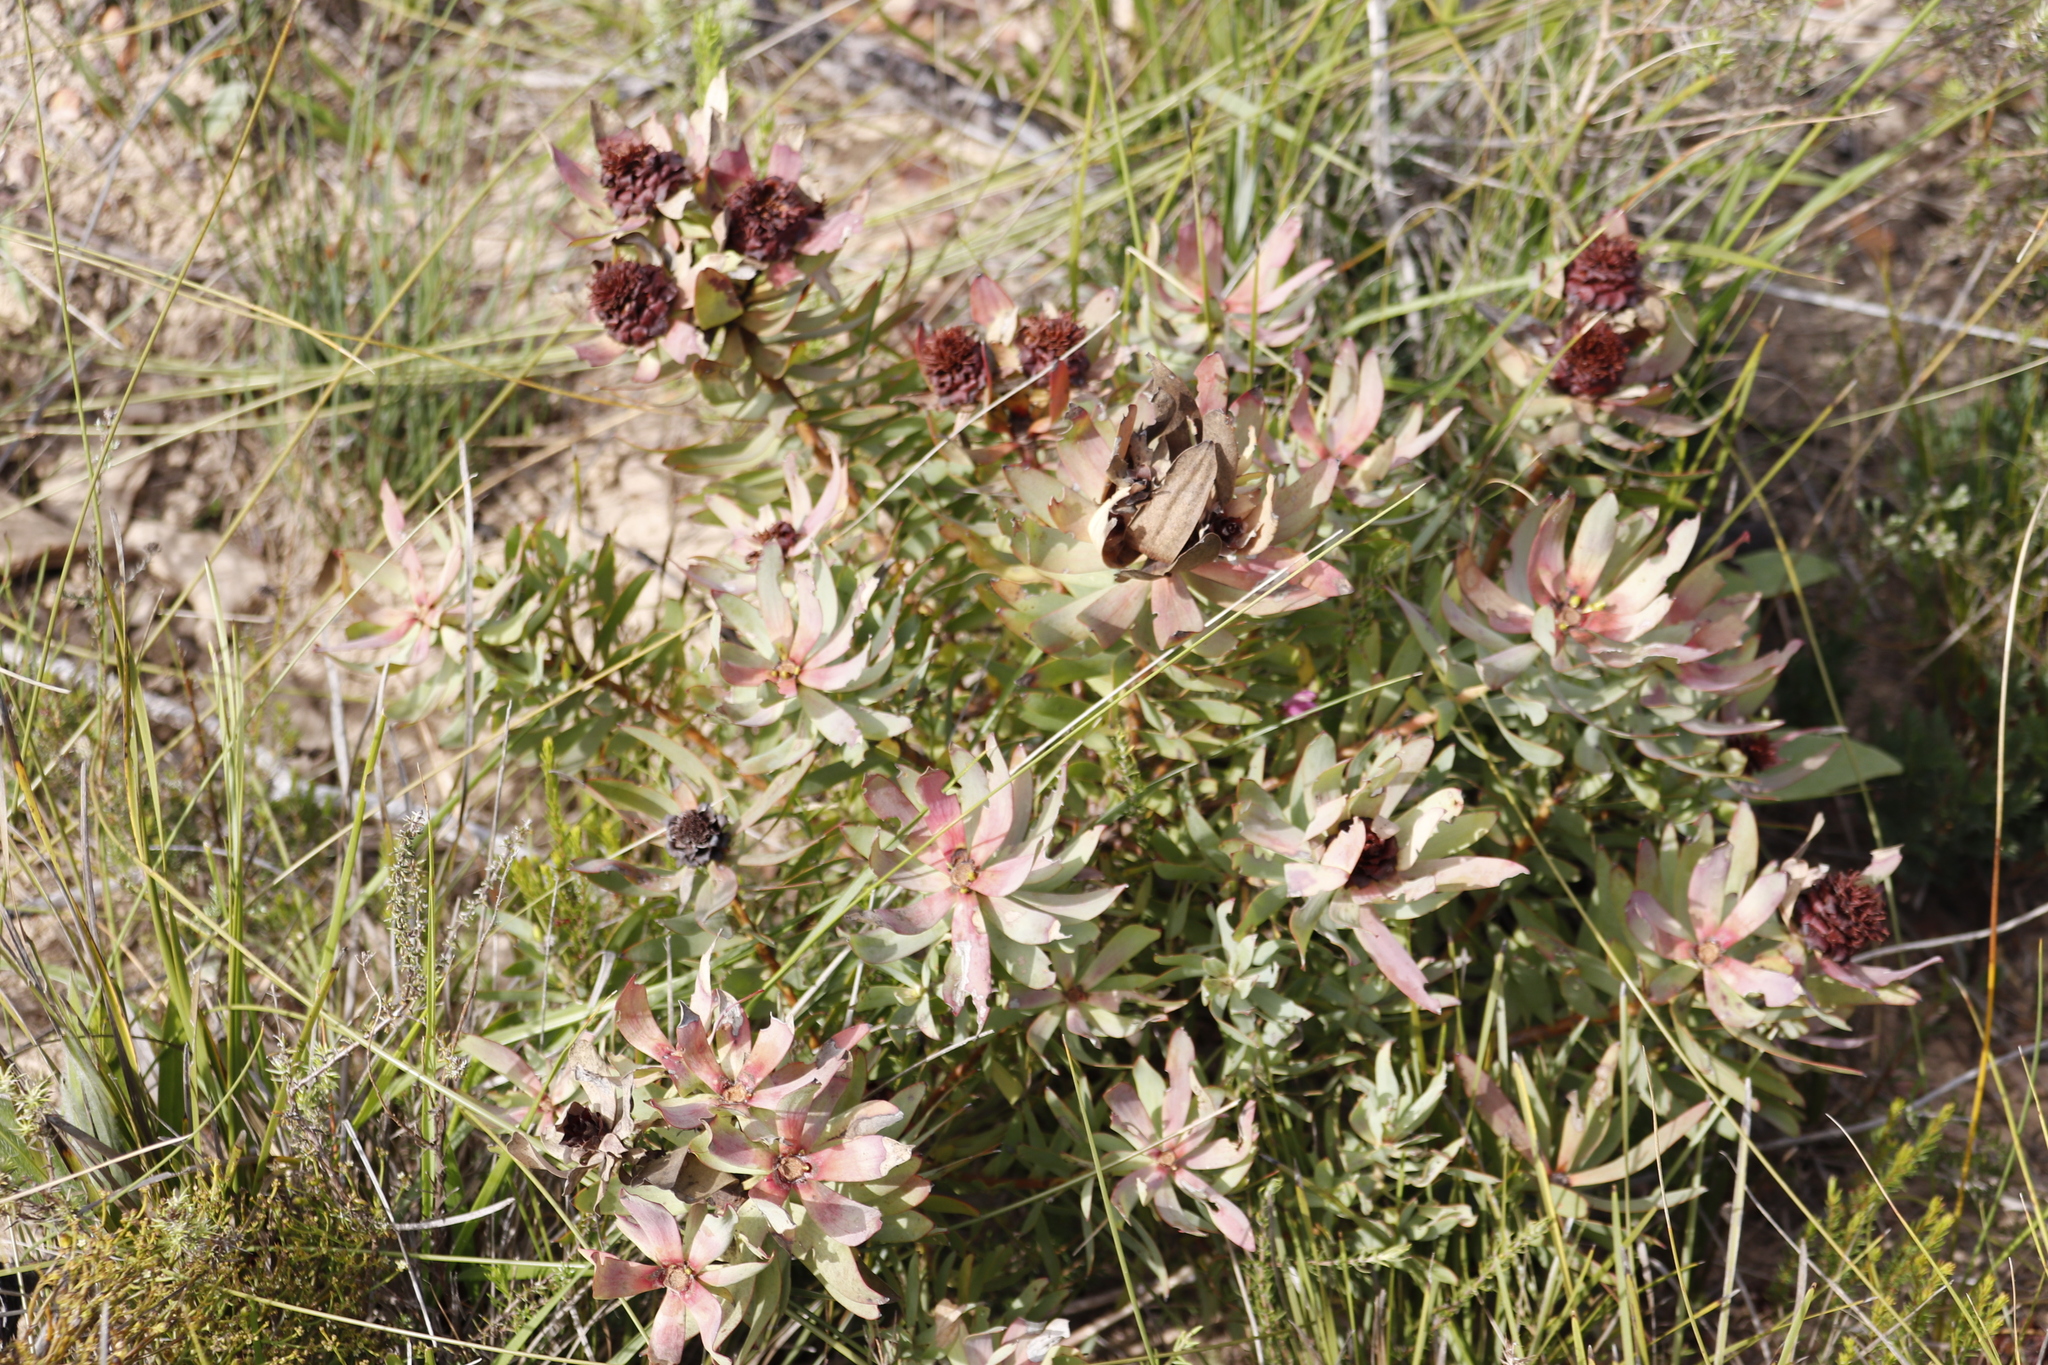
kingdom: Plantae
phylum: Tracheophyta
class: Magnoliopsida
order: Proteales
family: Proteaceae
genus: Leucadendron
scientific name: Leucadendron tinctum
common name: Spicy conebush
